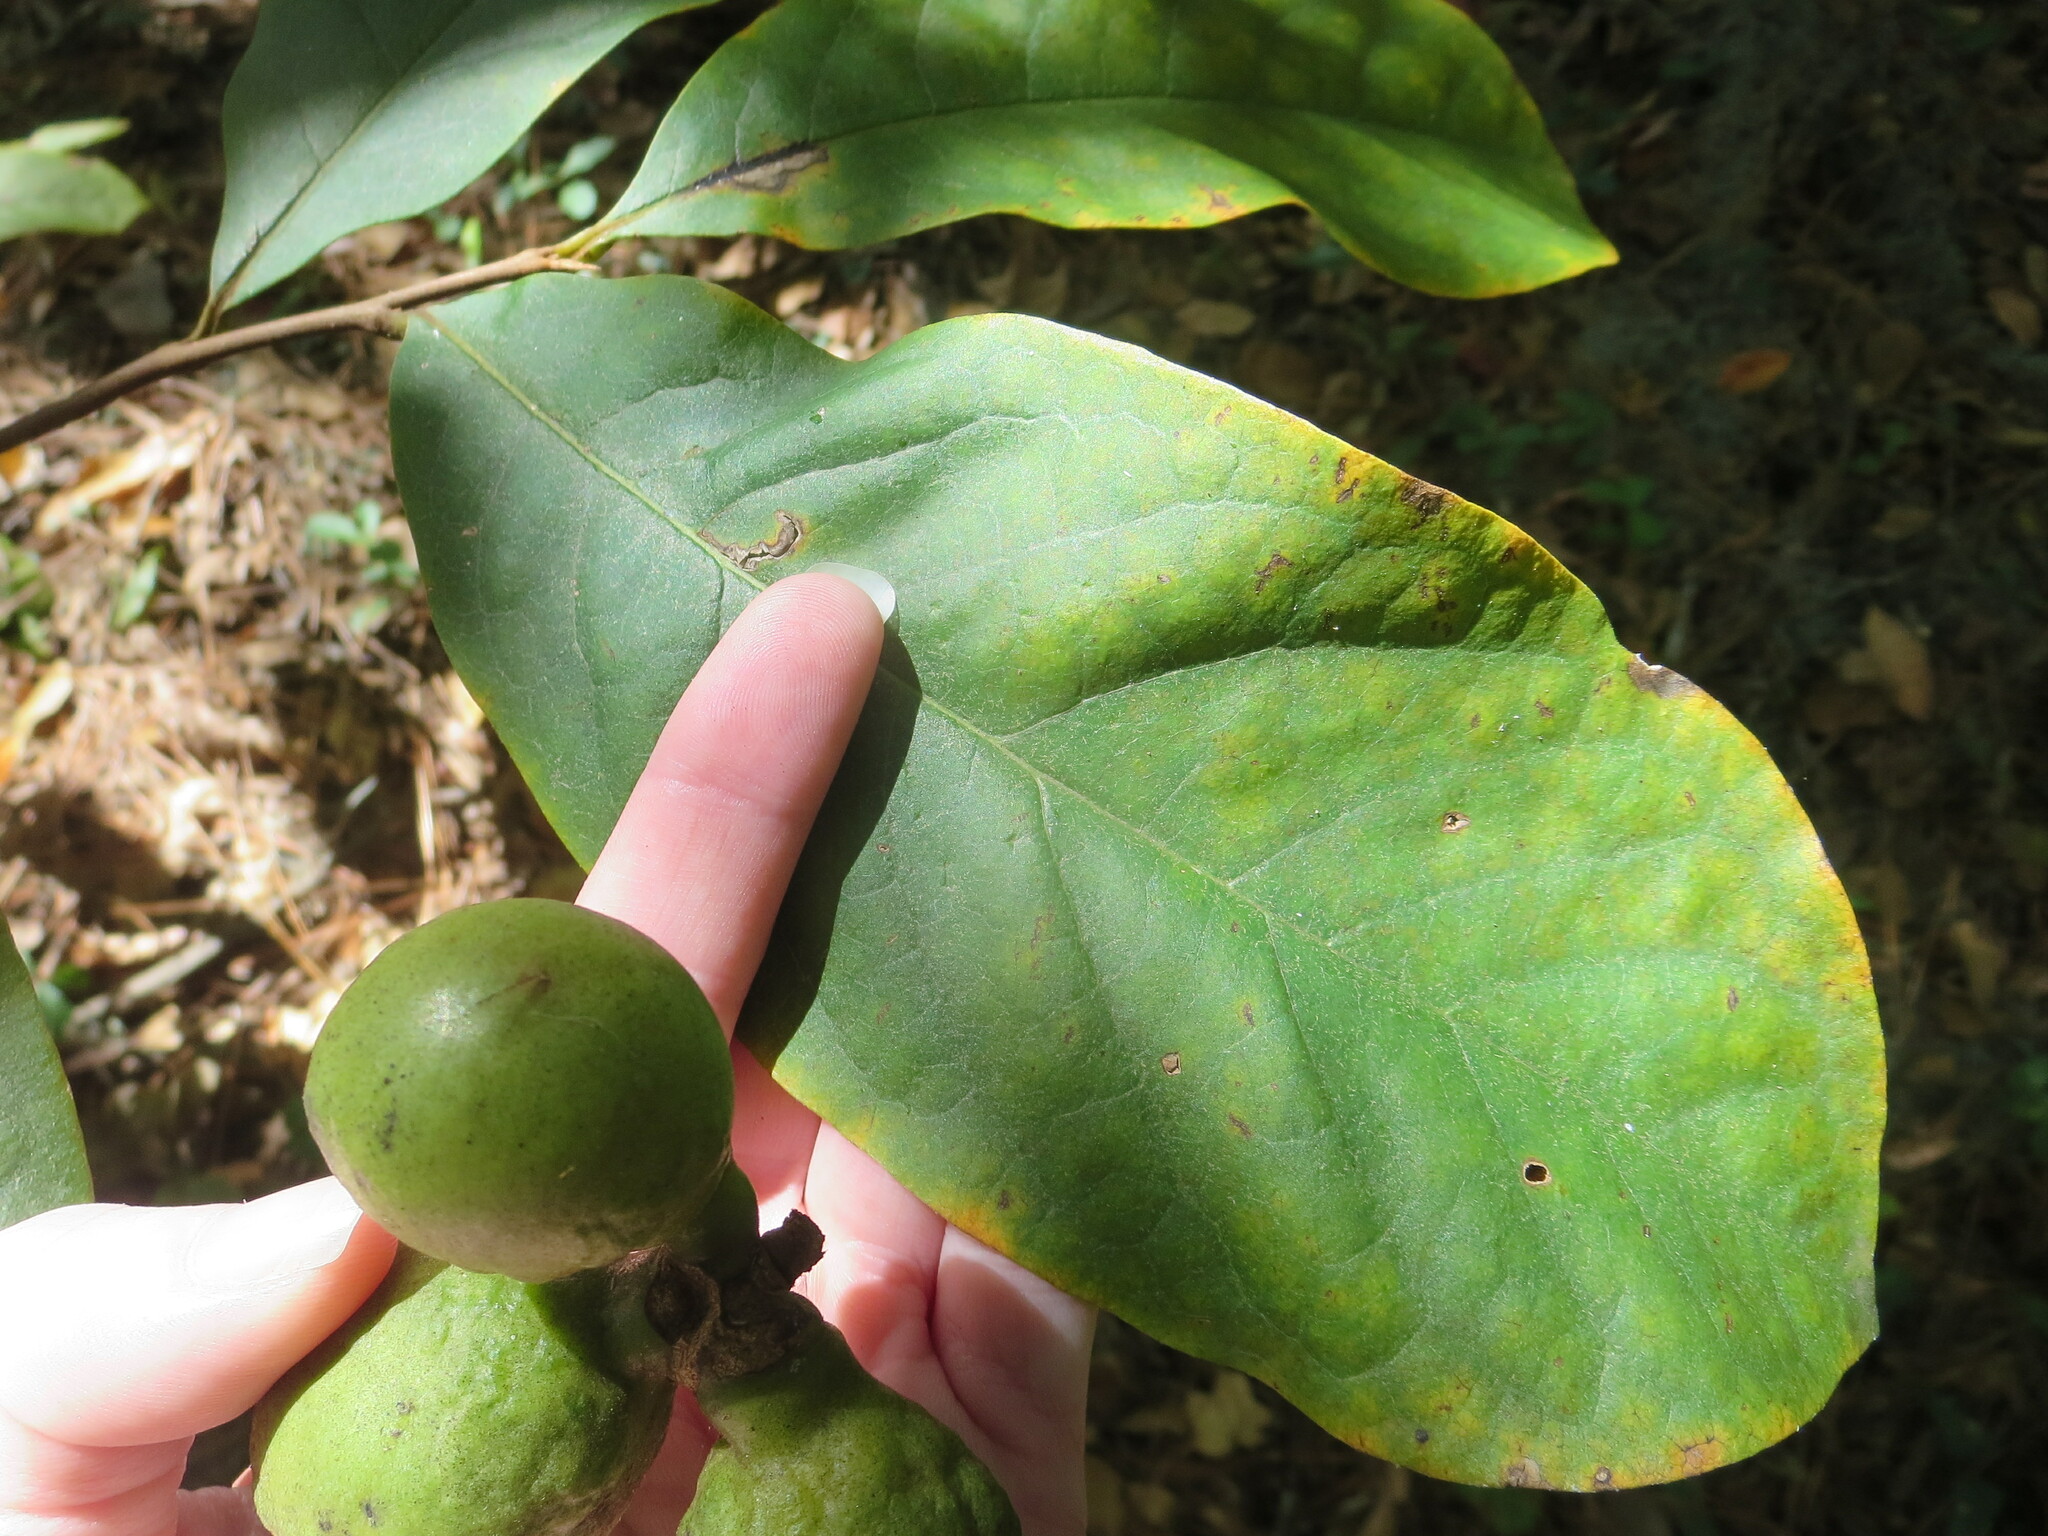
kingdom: Plantae
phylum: Tracheophyta
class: Magnoliopsida
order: Magnoliales
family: Annonaceae
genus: Asimina
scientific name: Asimina parviflora
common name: Dwarf pawpaw
